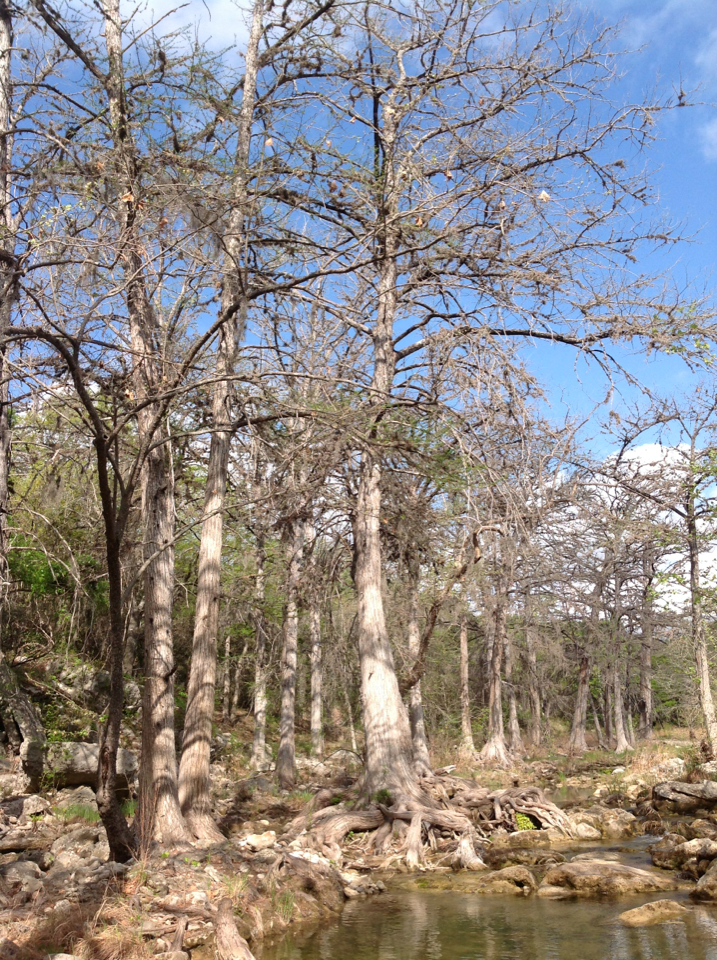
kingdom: Plantae
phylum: Tracheophyta
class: Pinopsida
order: Pinales
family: Cupressaceae
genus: Taxodium
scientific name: Taxodium distichum
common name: Bald cypress
